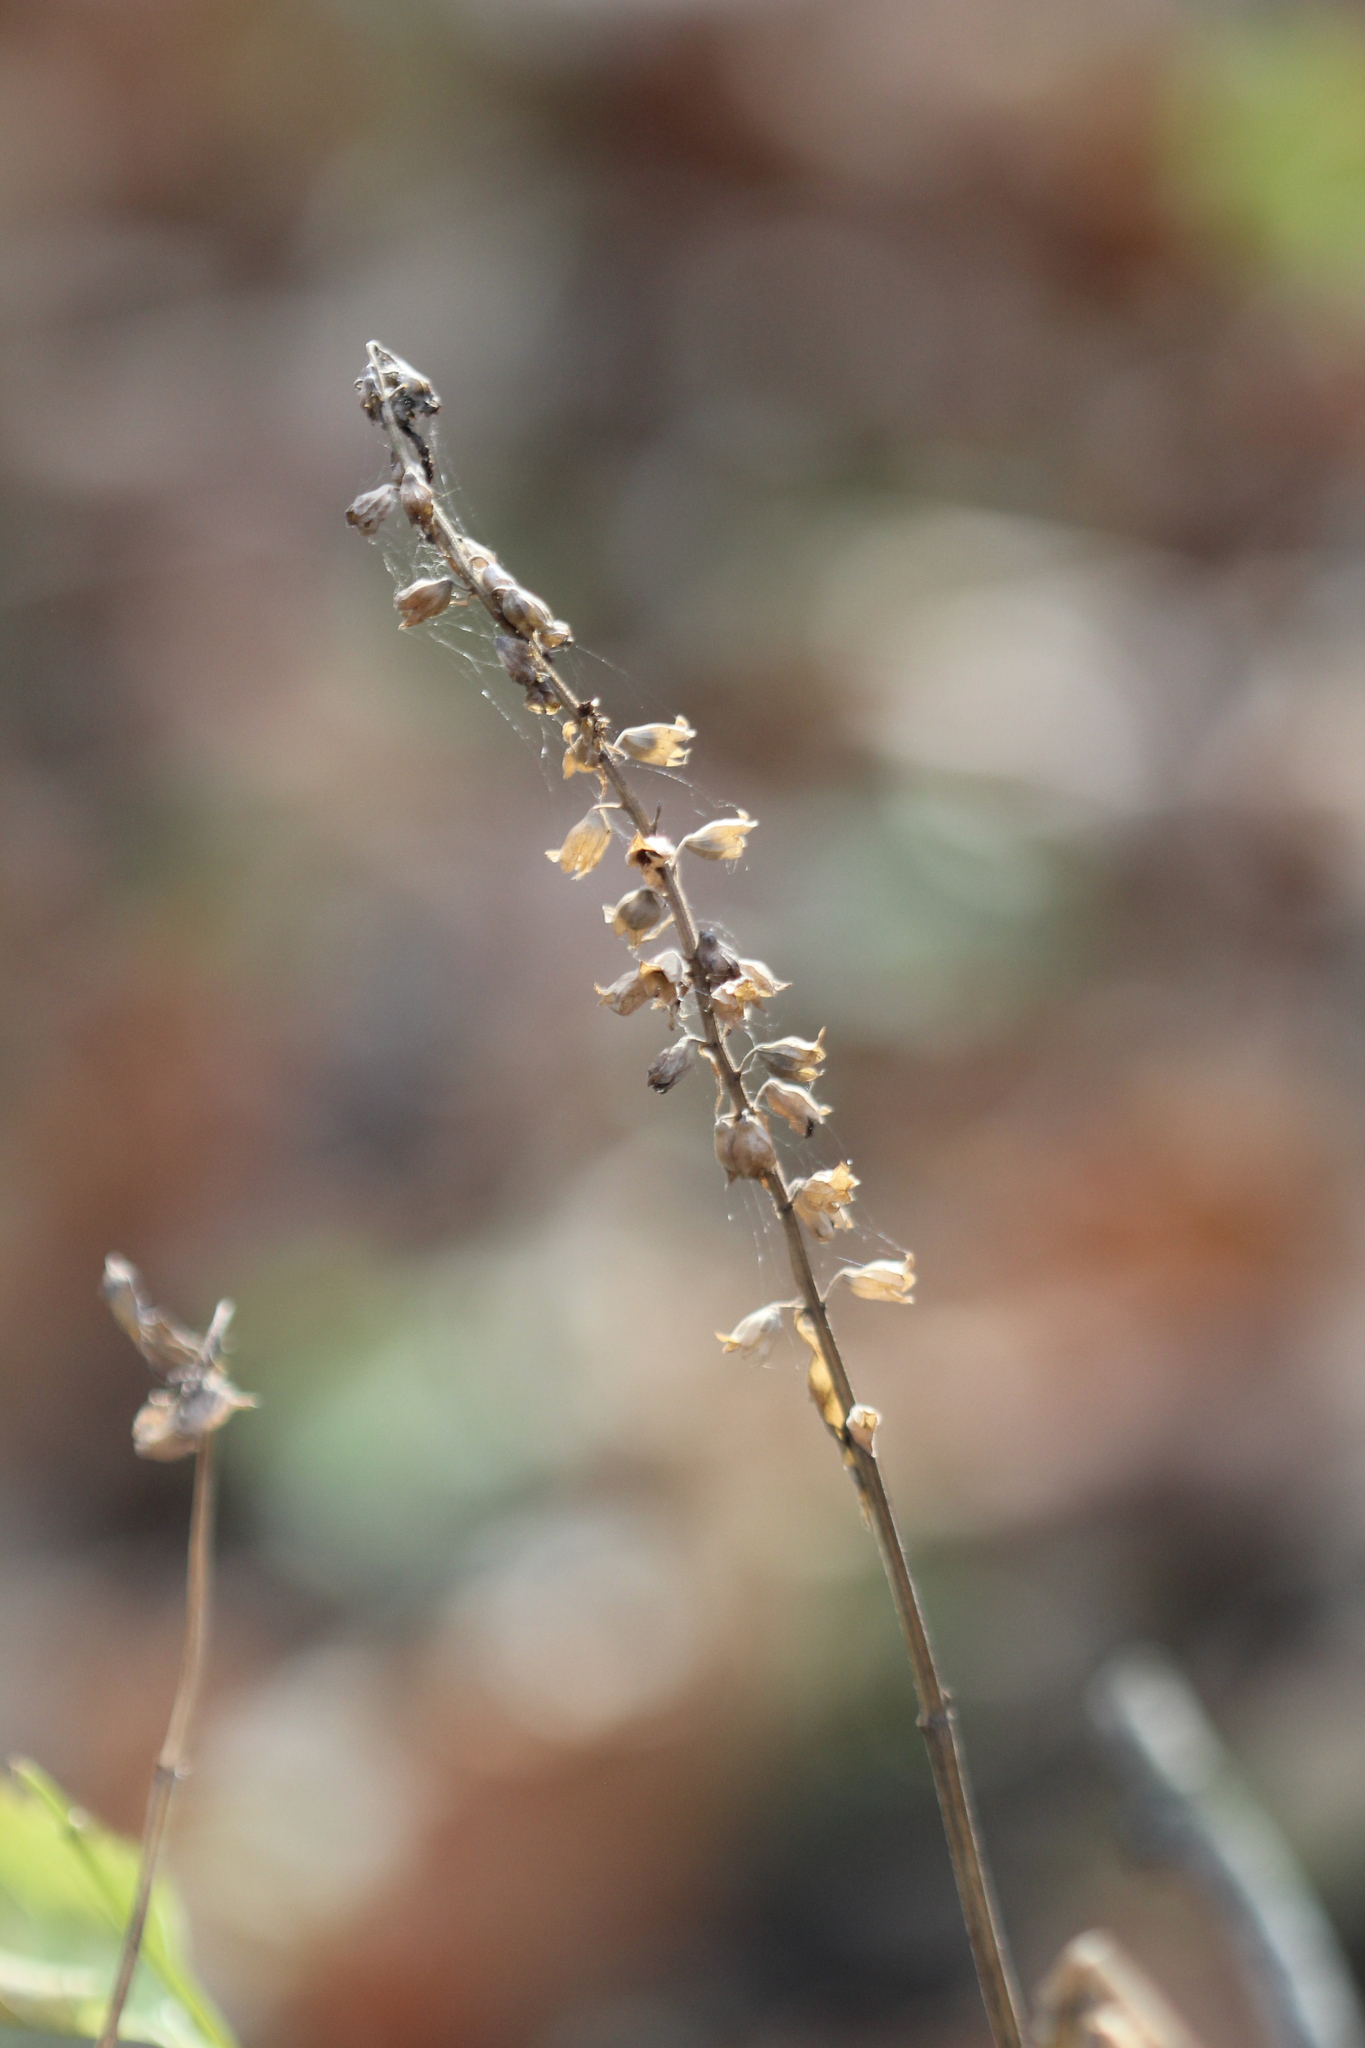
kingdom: Plantae
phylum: Tracheophyta
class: Magnoliopsida
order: Lamiales
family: Lamiaceae
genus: Stachys
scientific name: Stachys tenuifolia
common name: Smooth hedge-nettle
